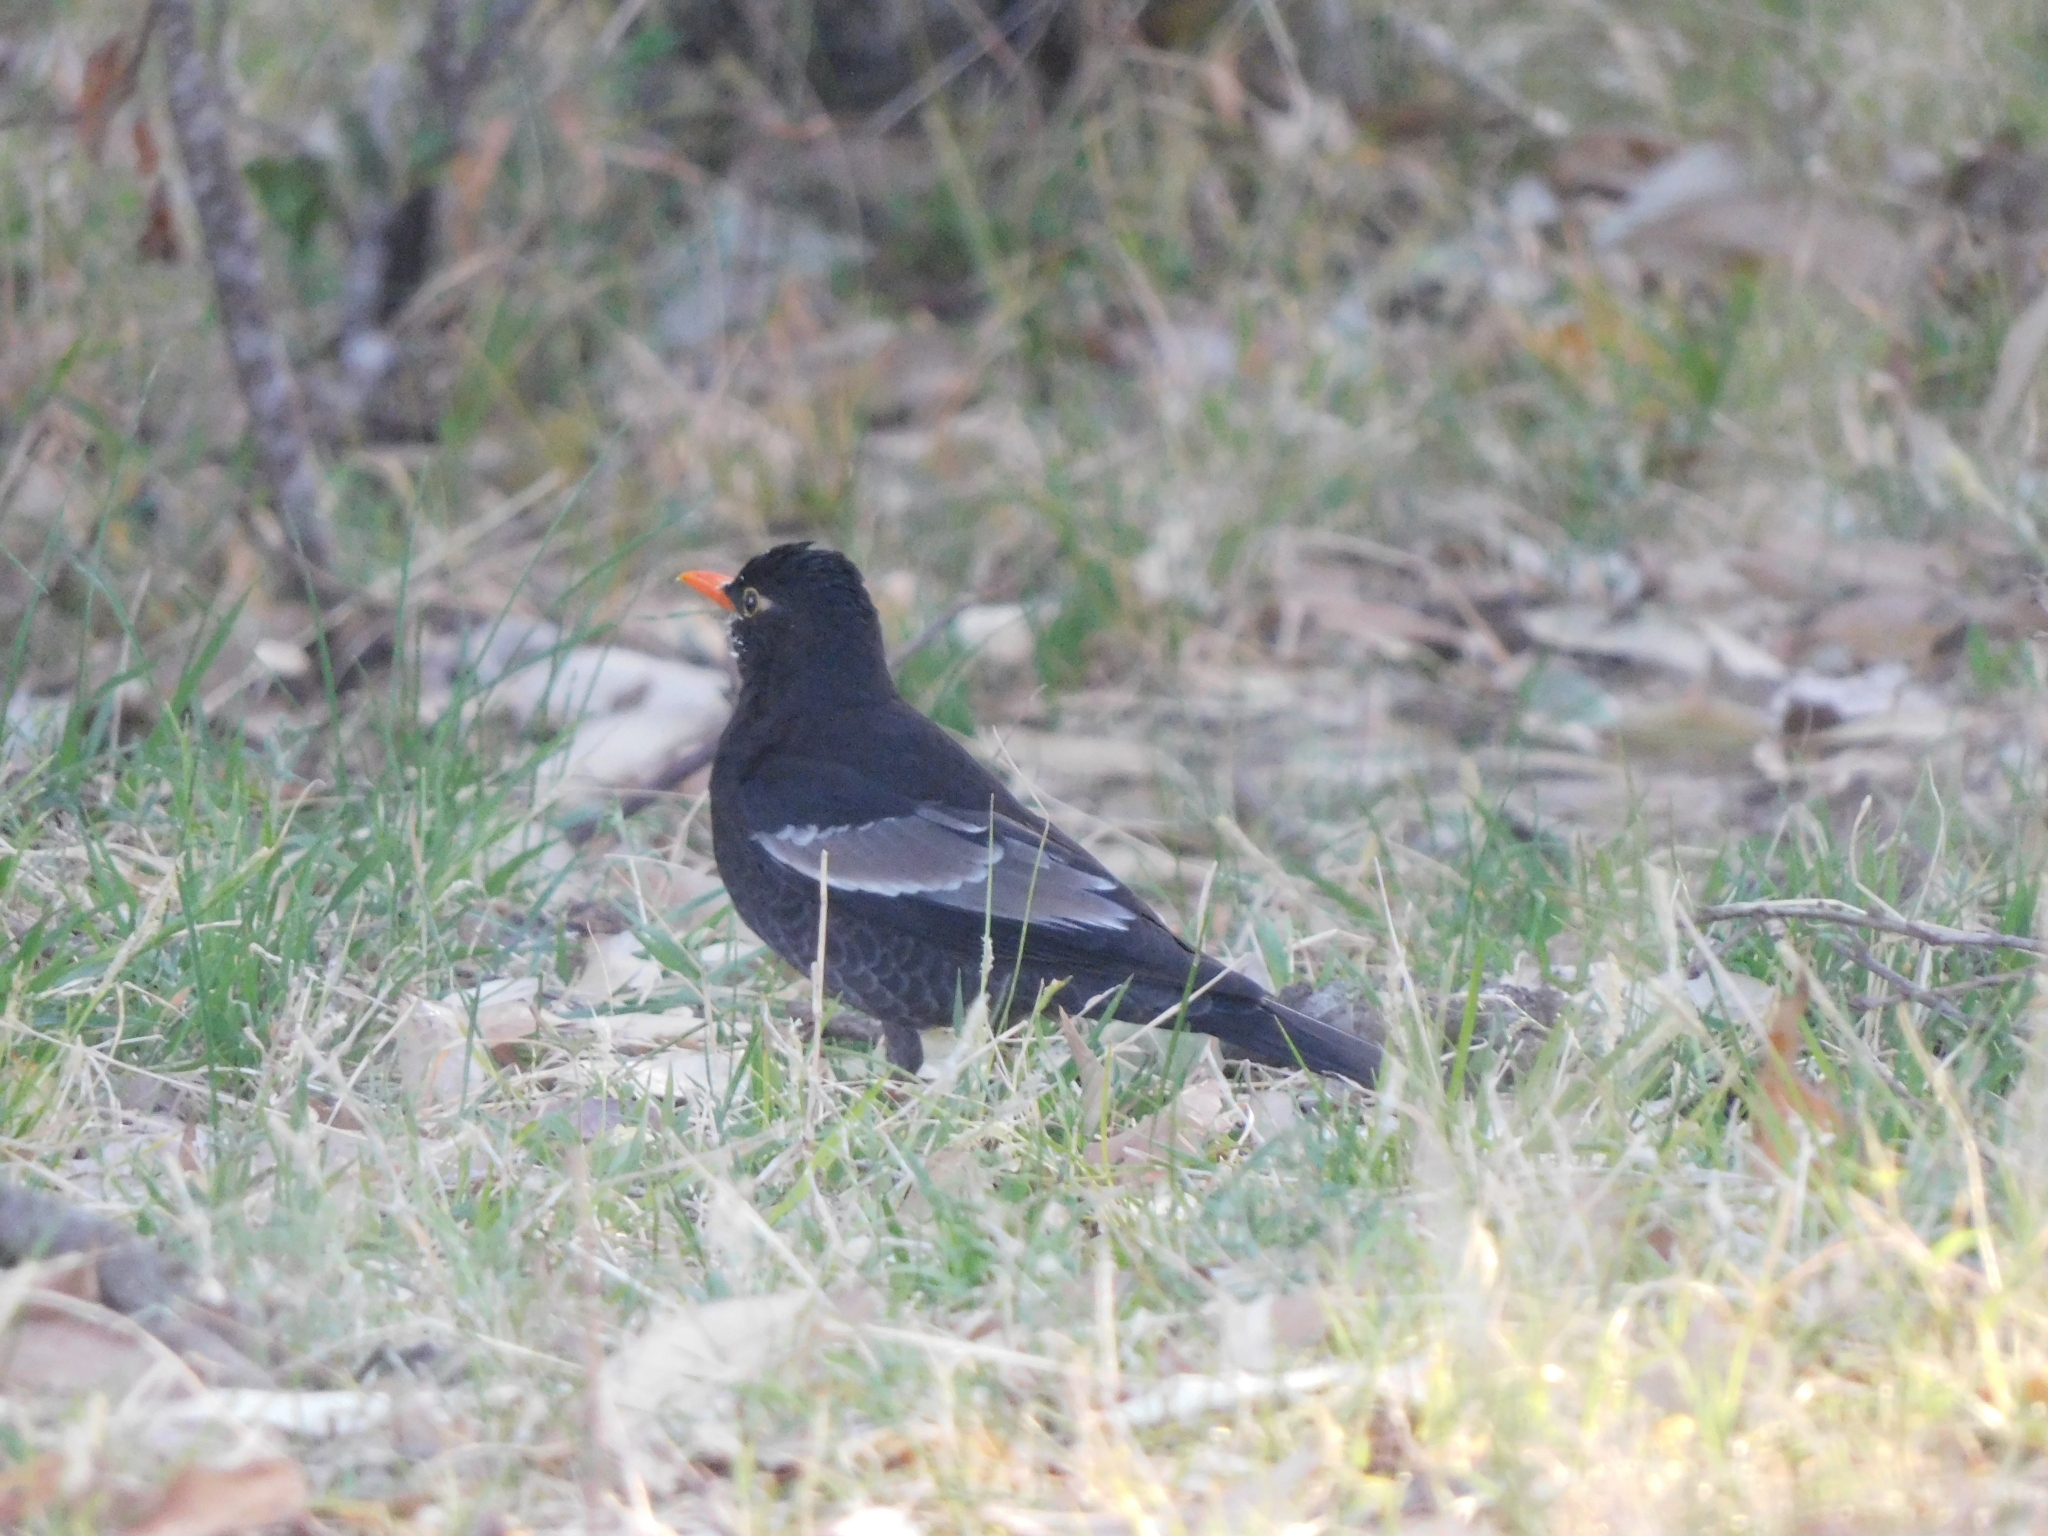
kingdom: Animalia
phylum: Chordata
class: Aves
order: Passeriformes
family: Turdidae
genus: Turdus
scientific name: Turdus boulboul
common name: Grey-winged blackbird
